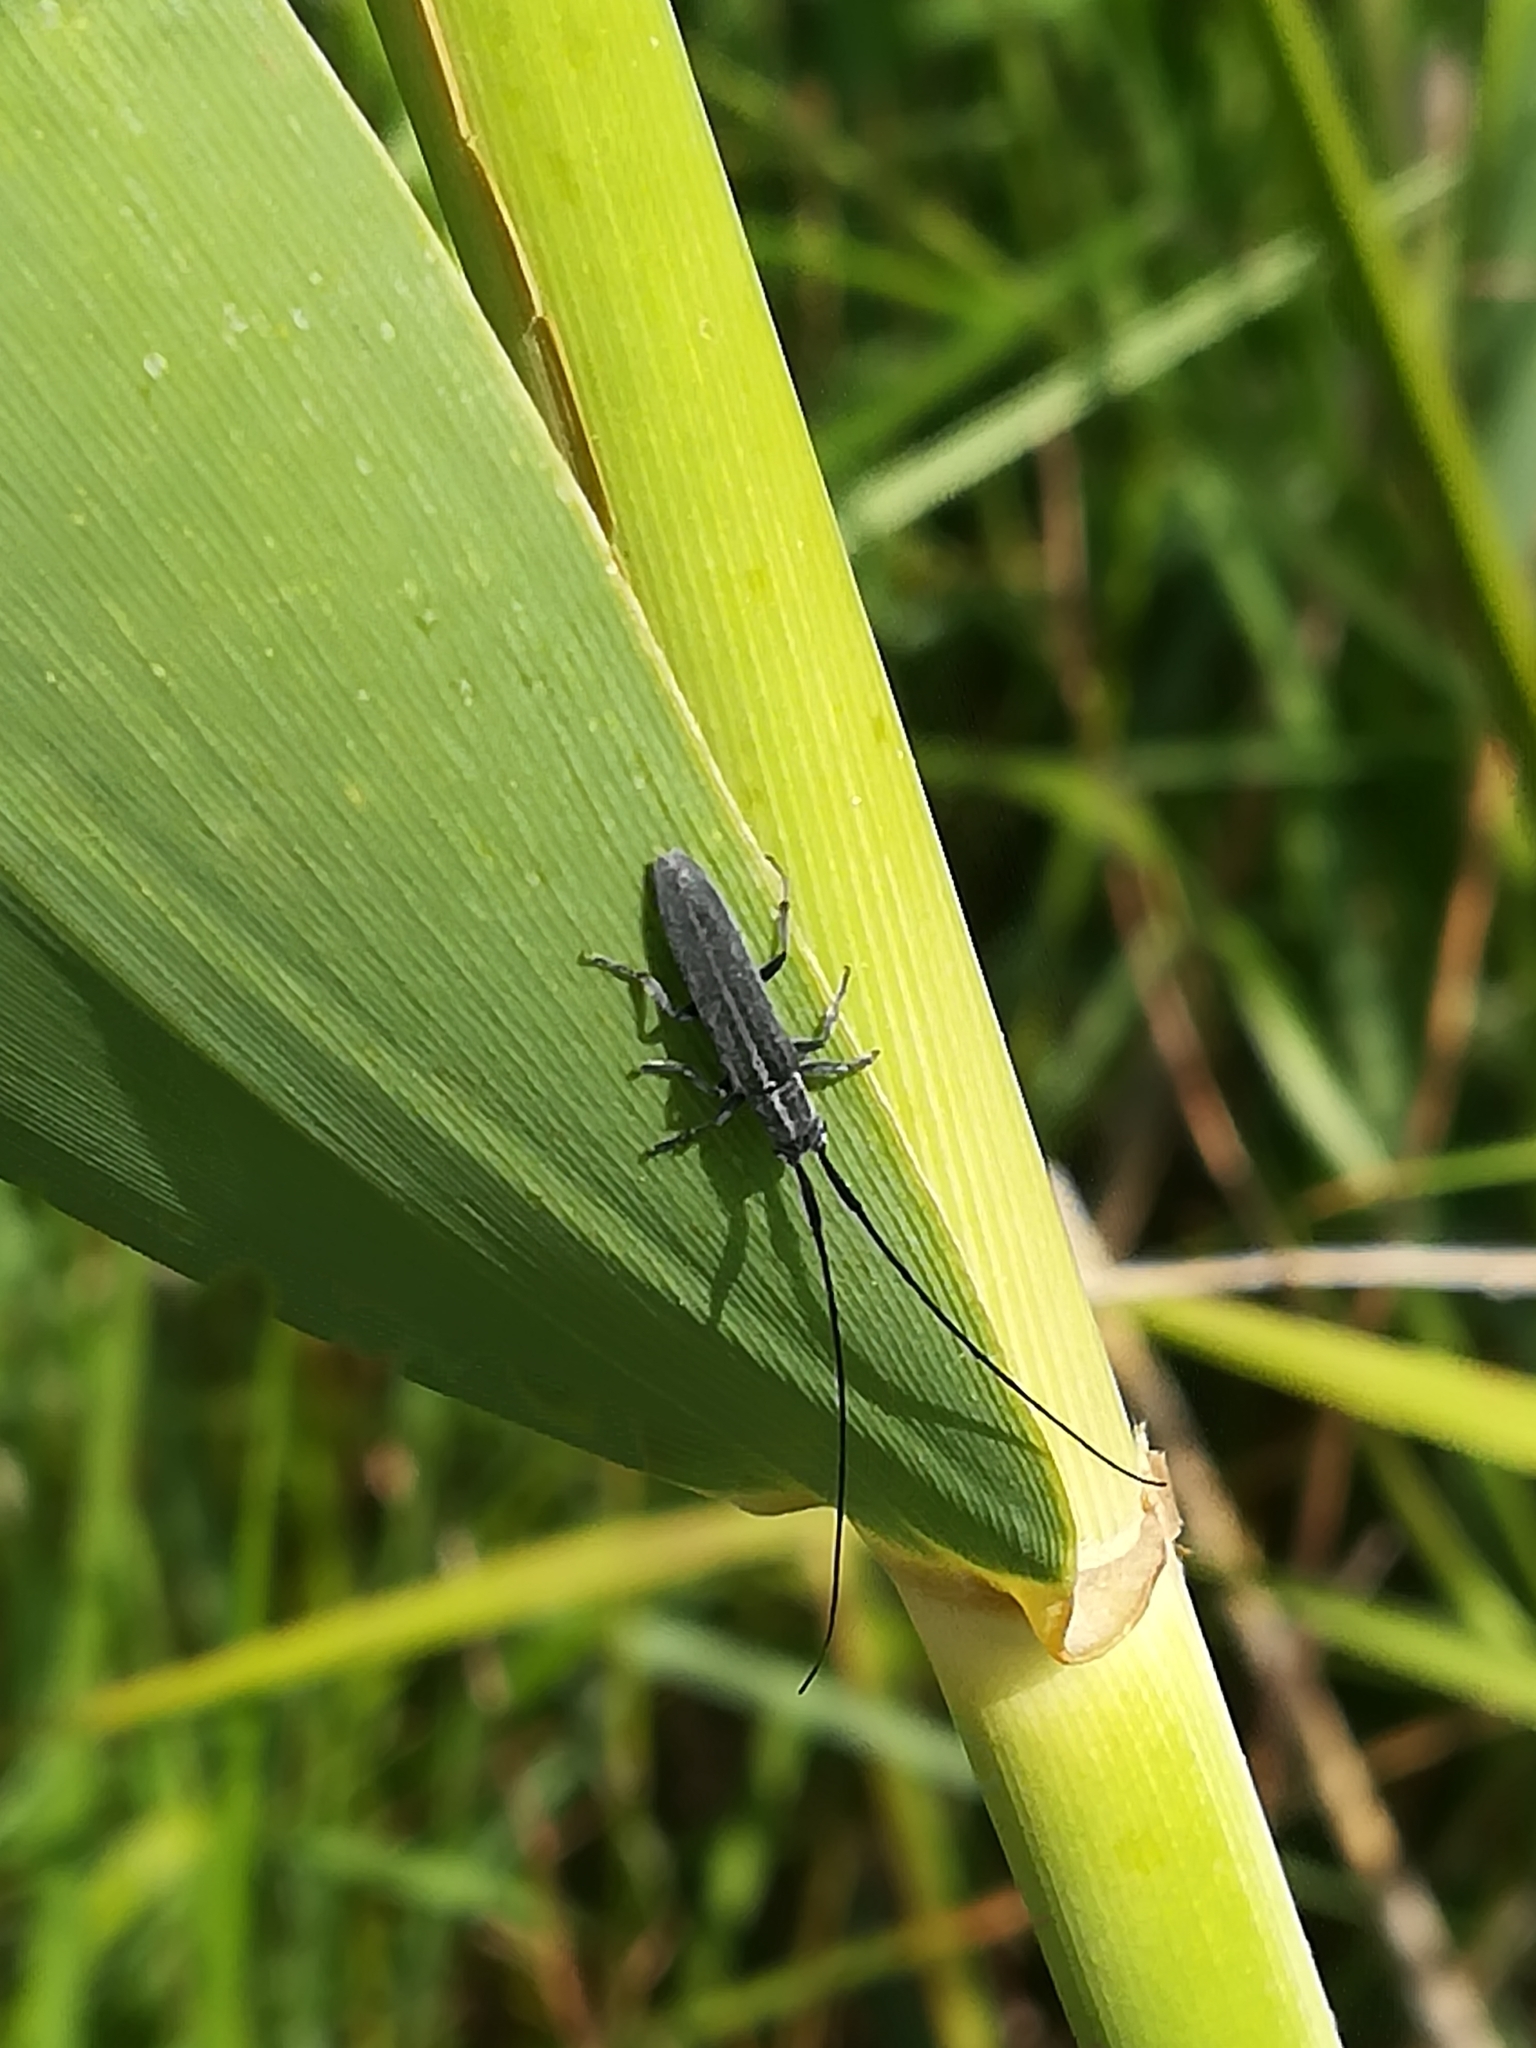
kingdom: Animalia
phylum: Arthropoda
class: Insecta
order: Coleoptera
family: Cerambycidae
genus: Calamobius
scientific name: Calamobius filum
